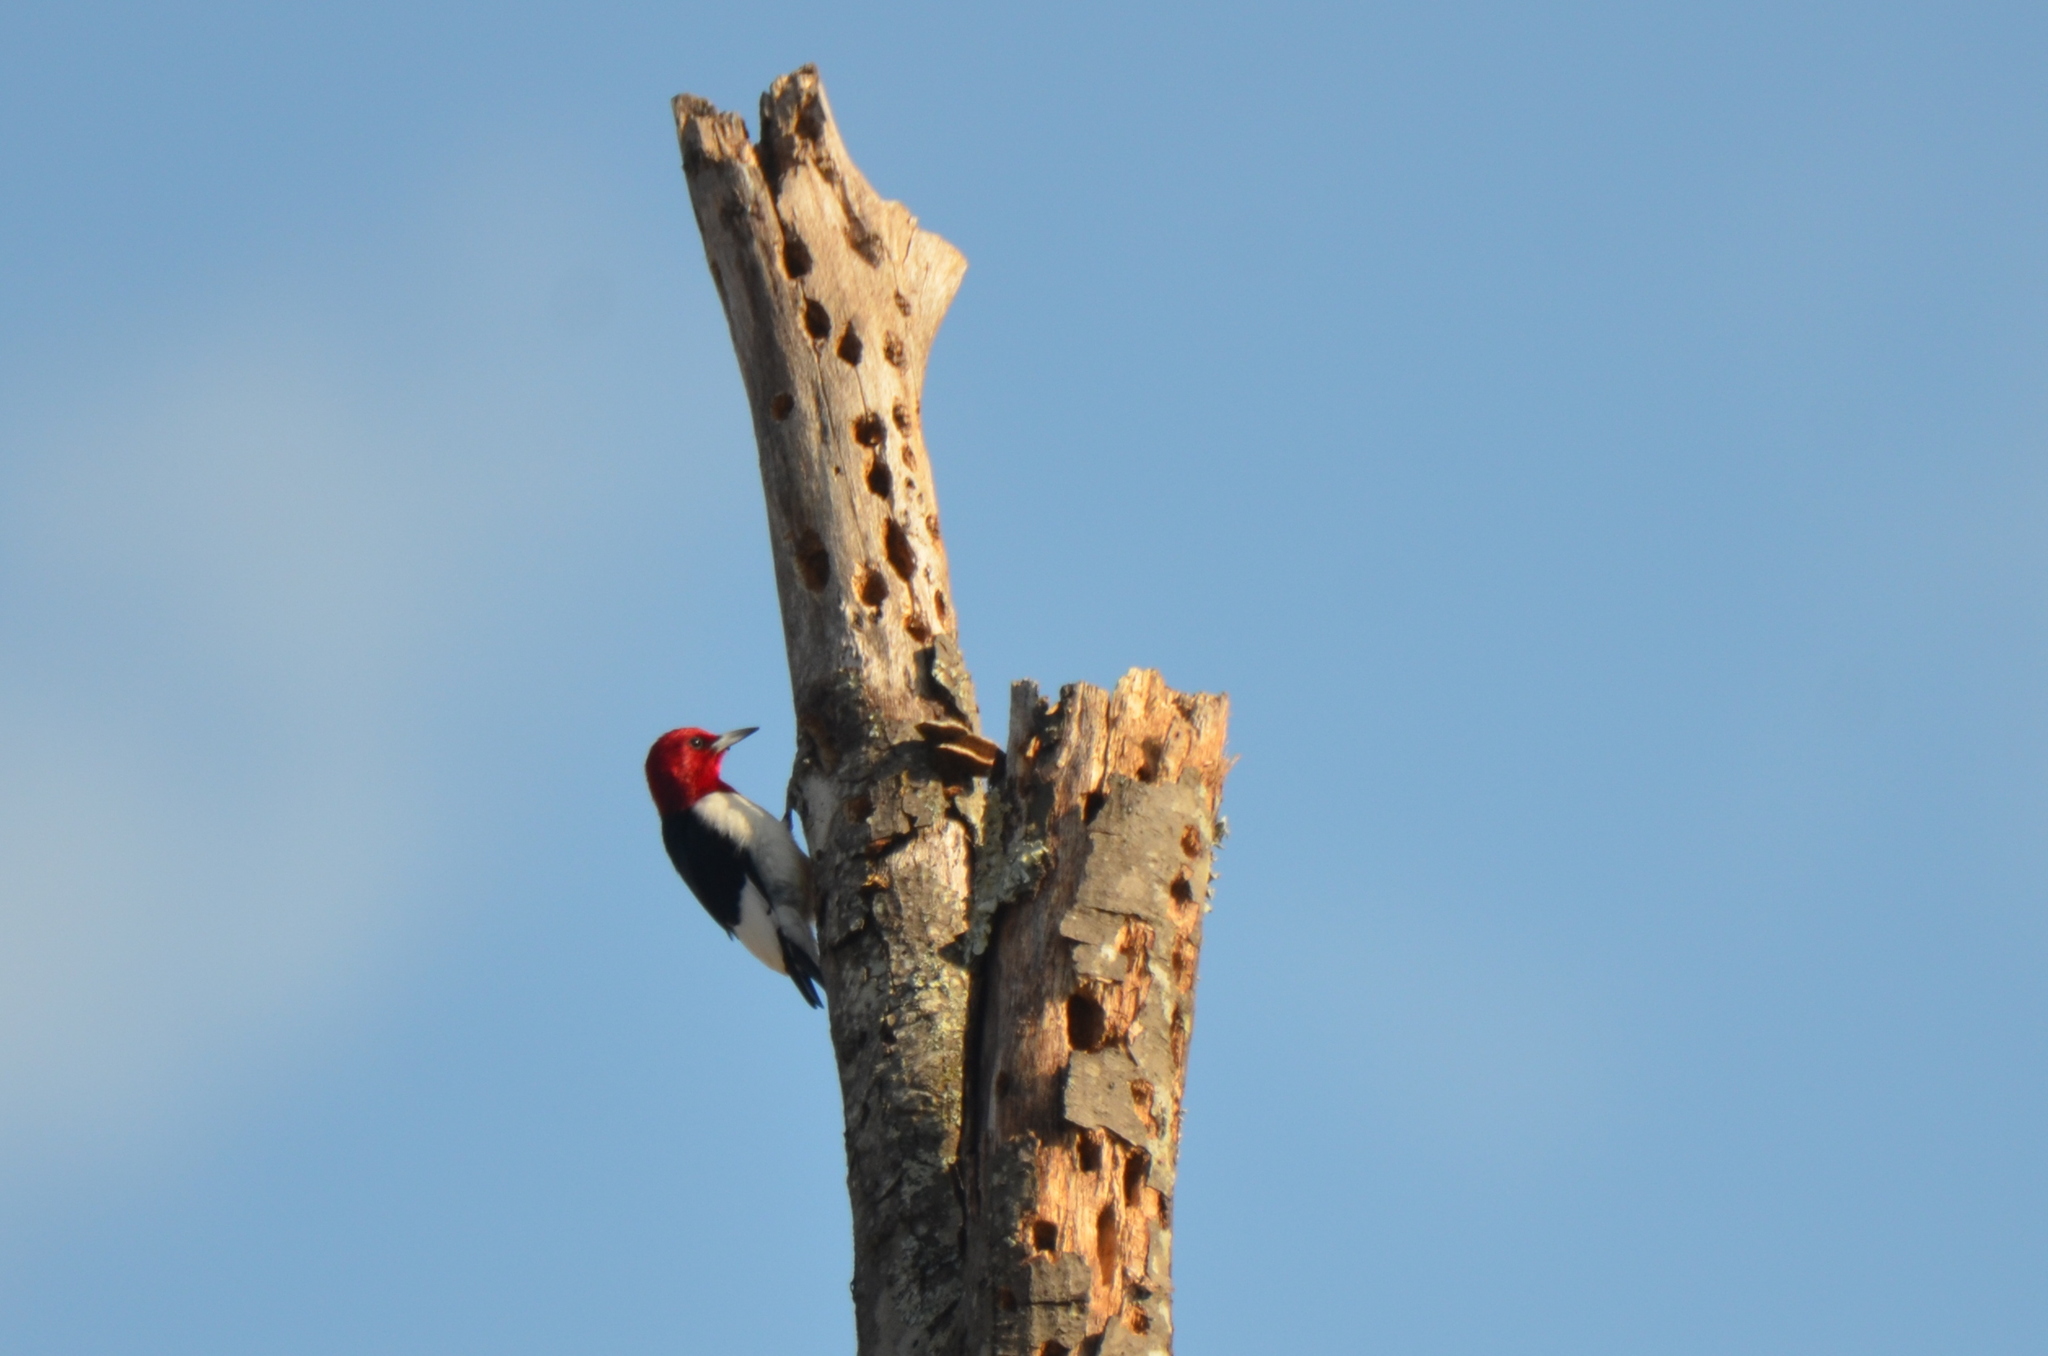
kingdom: Animalia
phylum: Chordata
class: Aves
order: Piciformes
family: Picidae
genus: Melanerpes
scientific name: Melanerpes erythrocephalus
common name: Red-headed woodpecker
